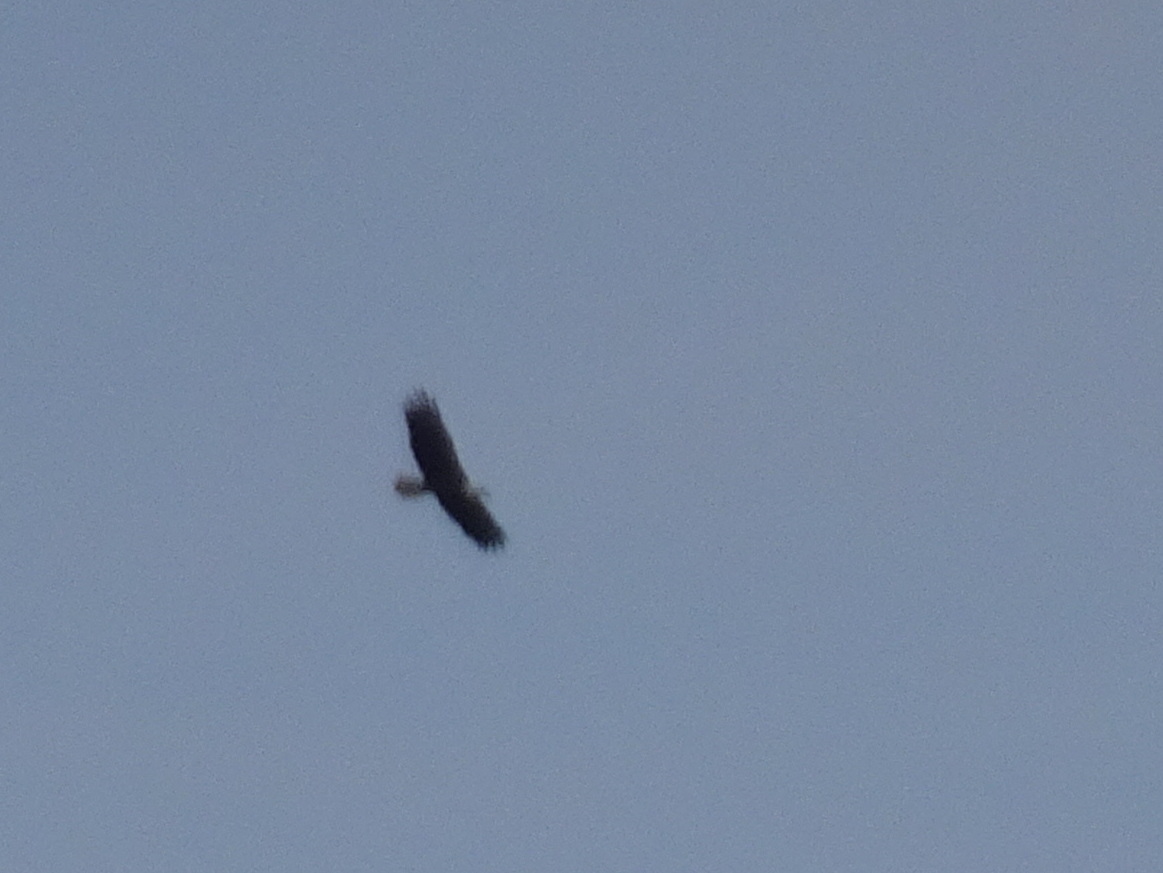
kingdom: Animalia
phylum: Chordata
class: Aves
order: Accipitriformes
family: Accipitridae
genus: Haliaeetus
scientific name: Haliaeetus leucocephalus
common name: Bald eagle
